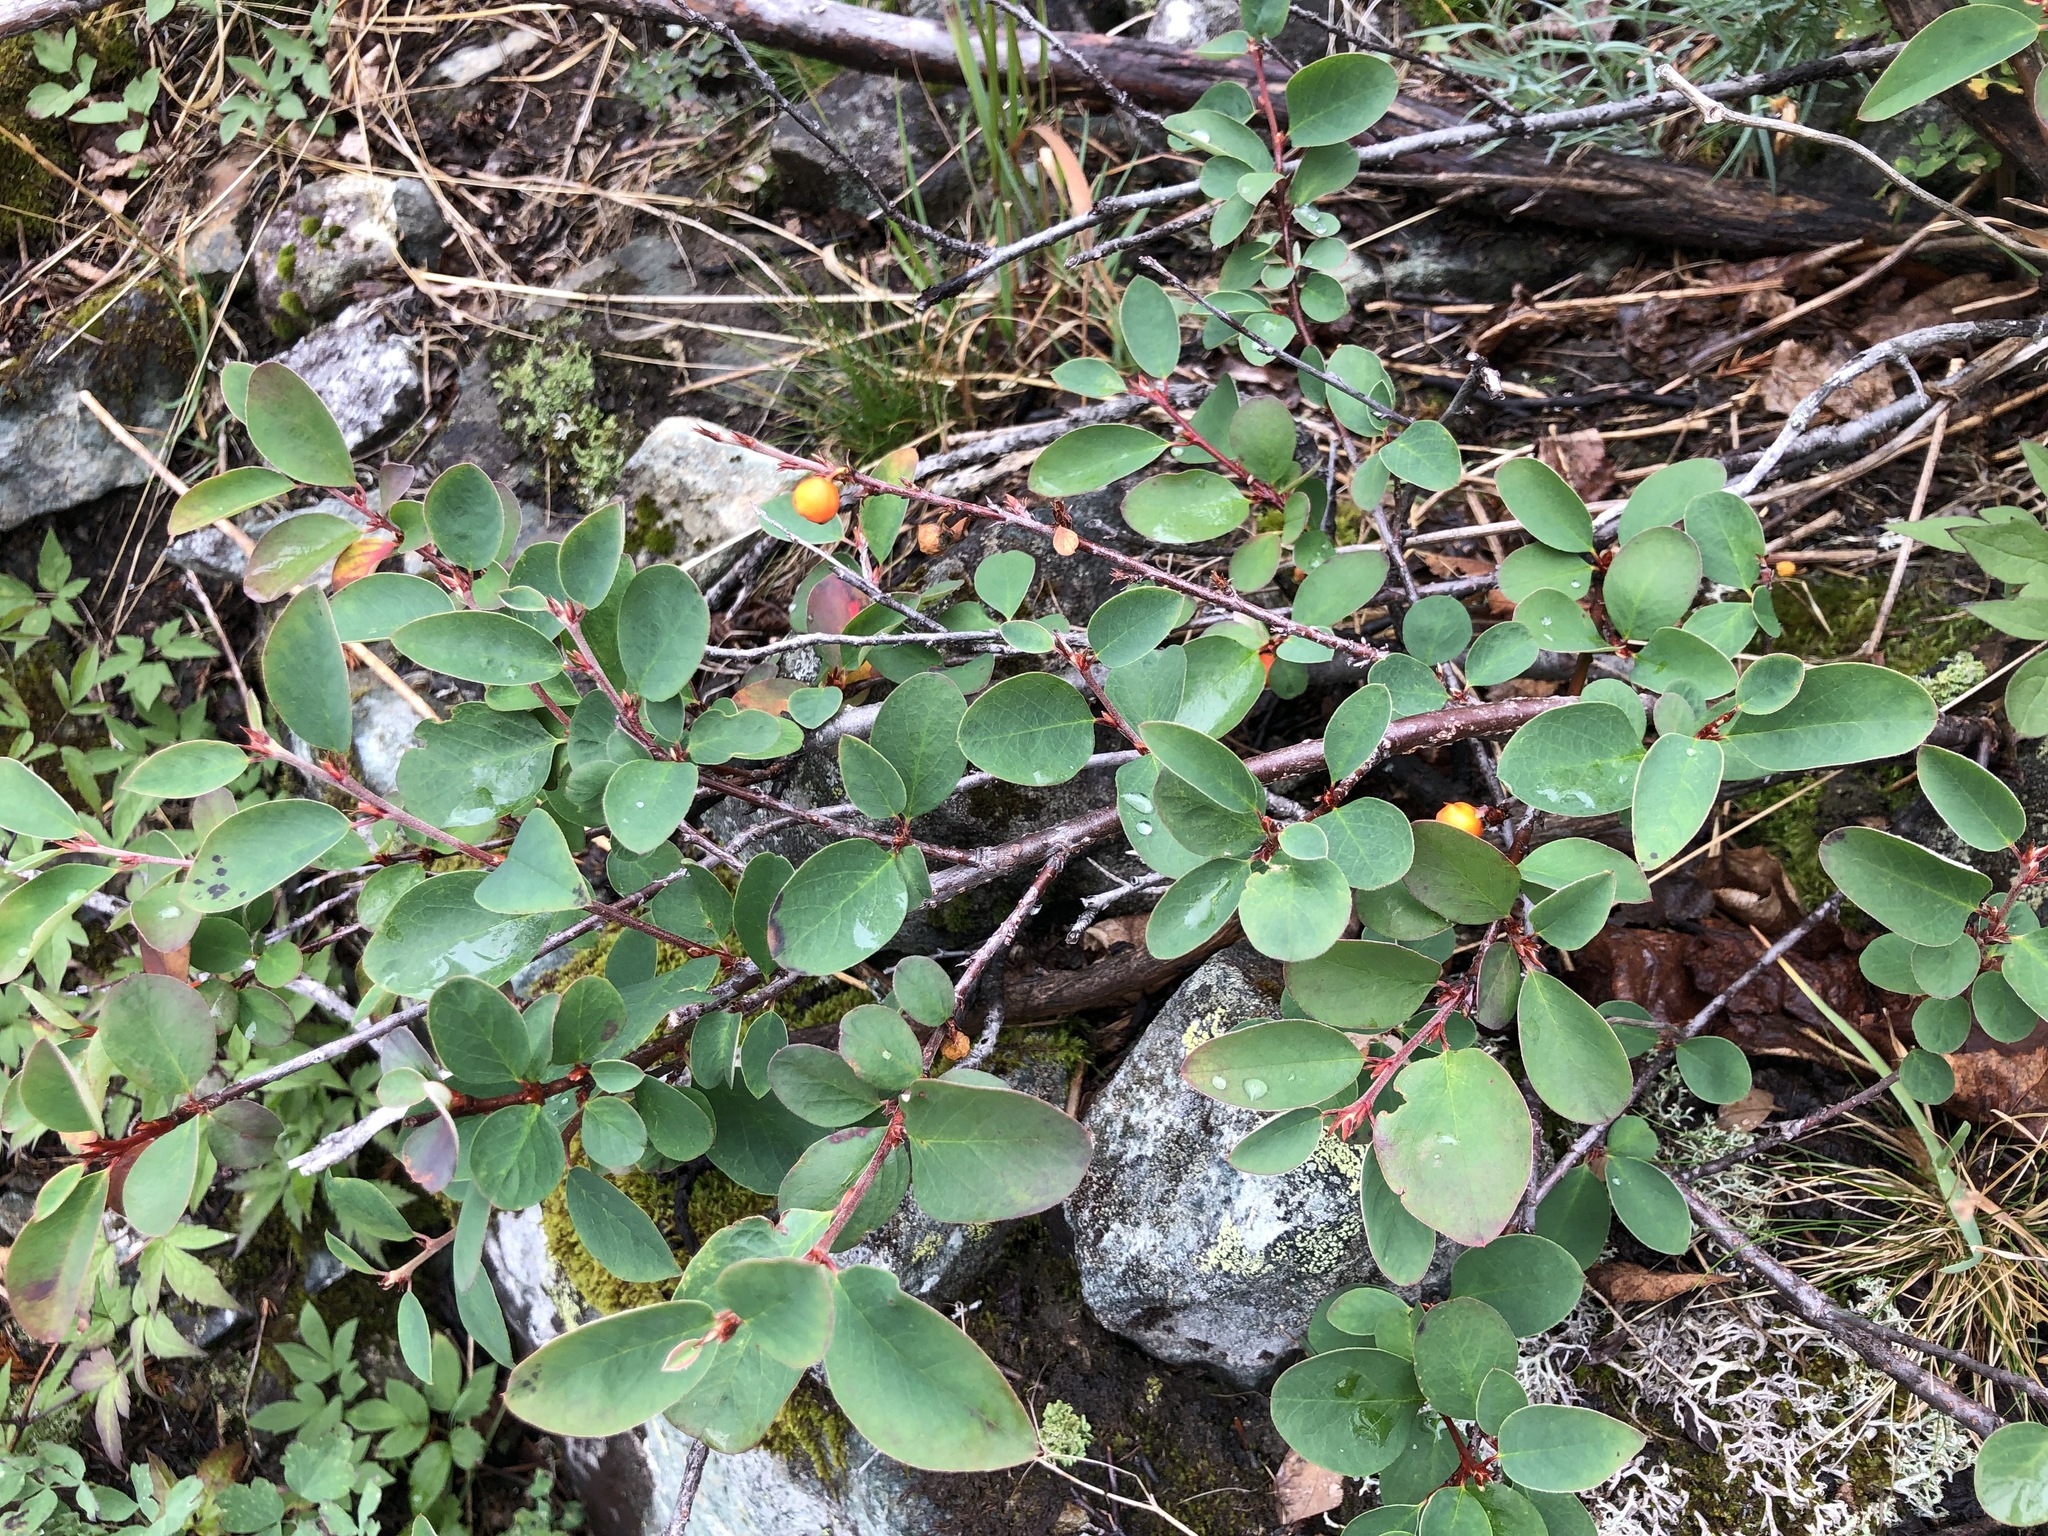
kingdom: Plantae
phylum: Tracheophyta
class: Magnoliopsida
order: Rosales
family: Rosaceae
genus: Cotoneaster
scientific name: Cotoneaster integerrimus
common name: Wild cotoneaster
